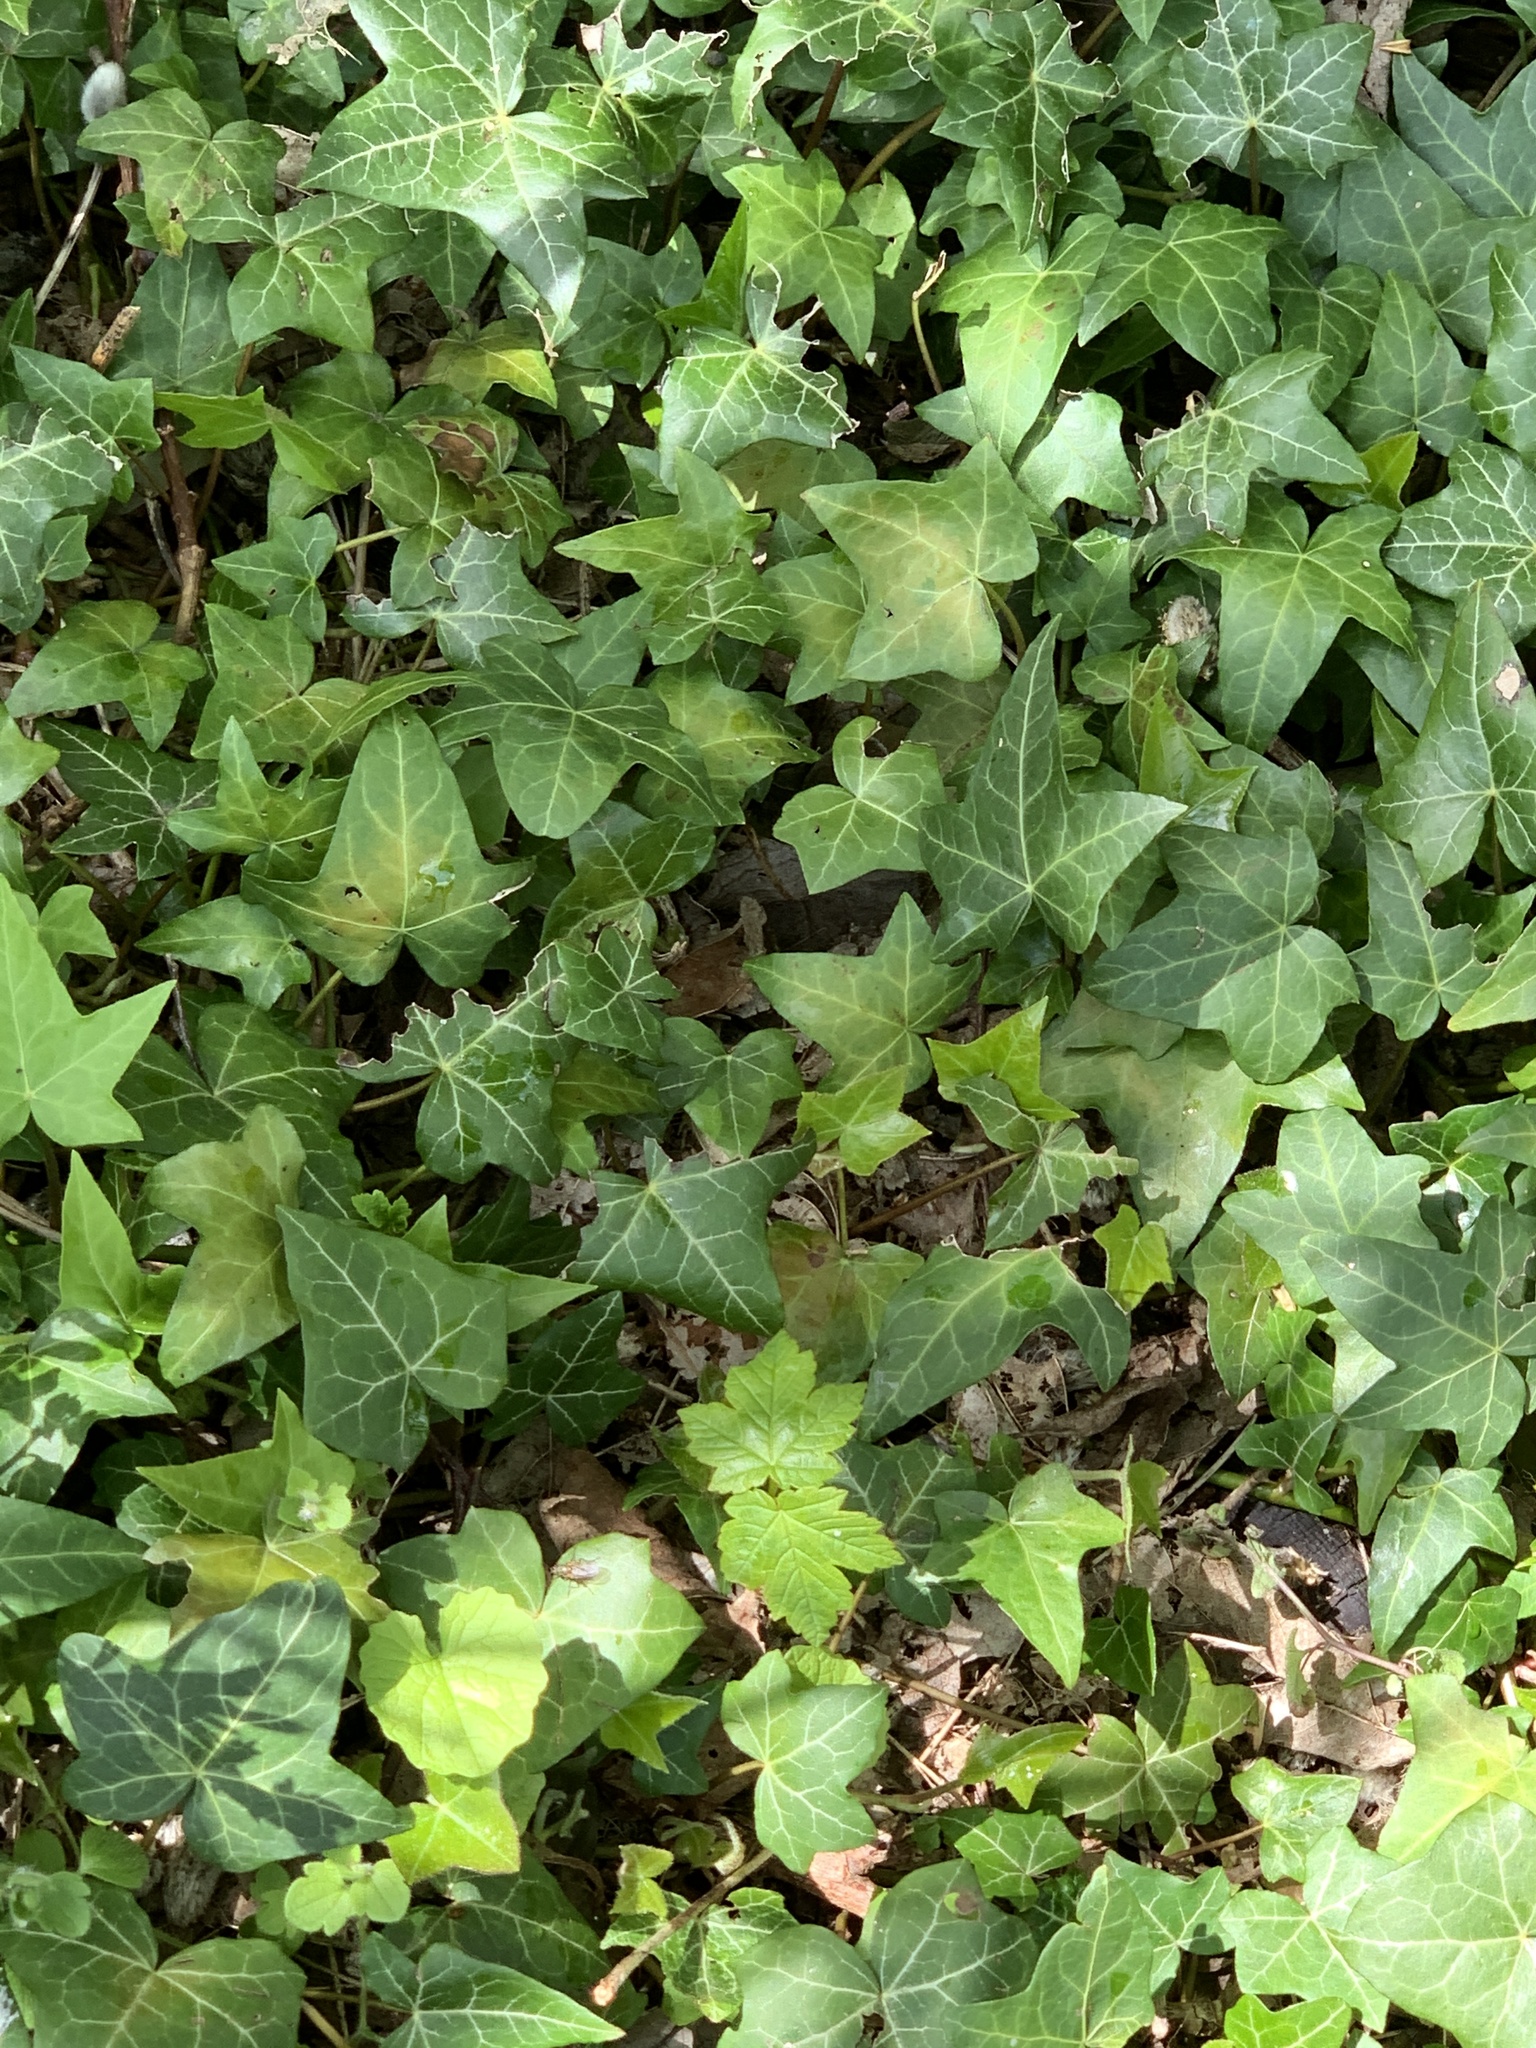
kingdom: Plantae
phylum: Tracheophyta
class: Magnoliopsida
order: Apiales
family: Araliaceae
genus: Hedera
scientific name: Hedera helix
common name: Ivy
